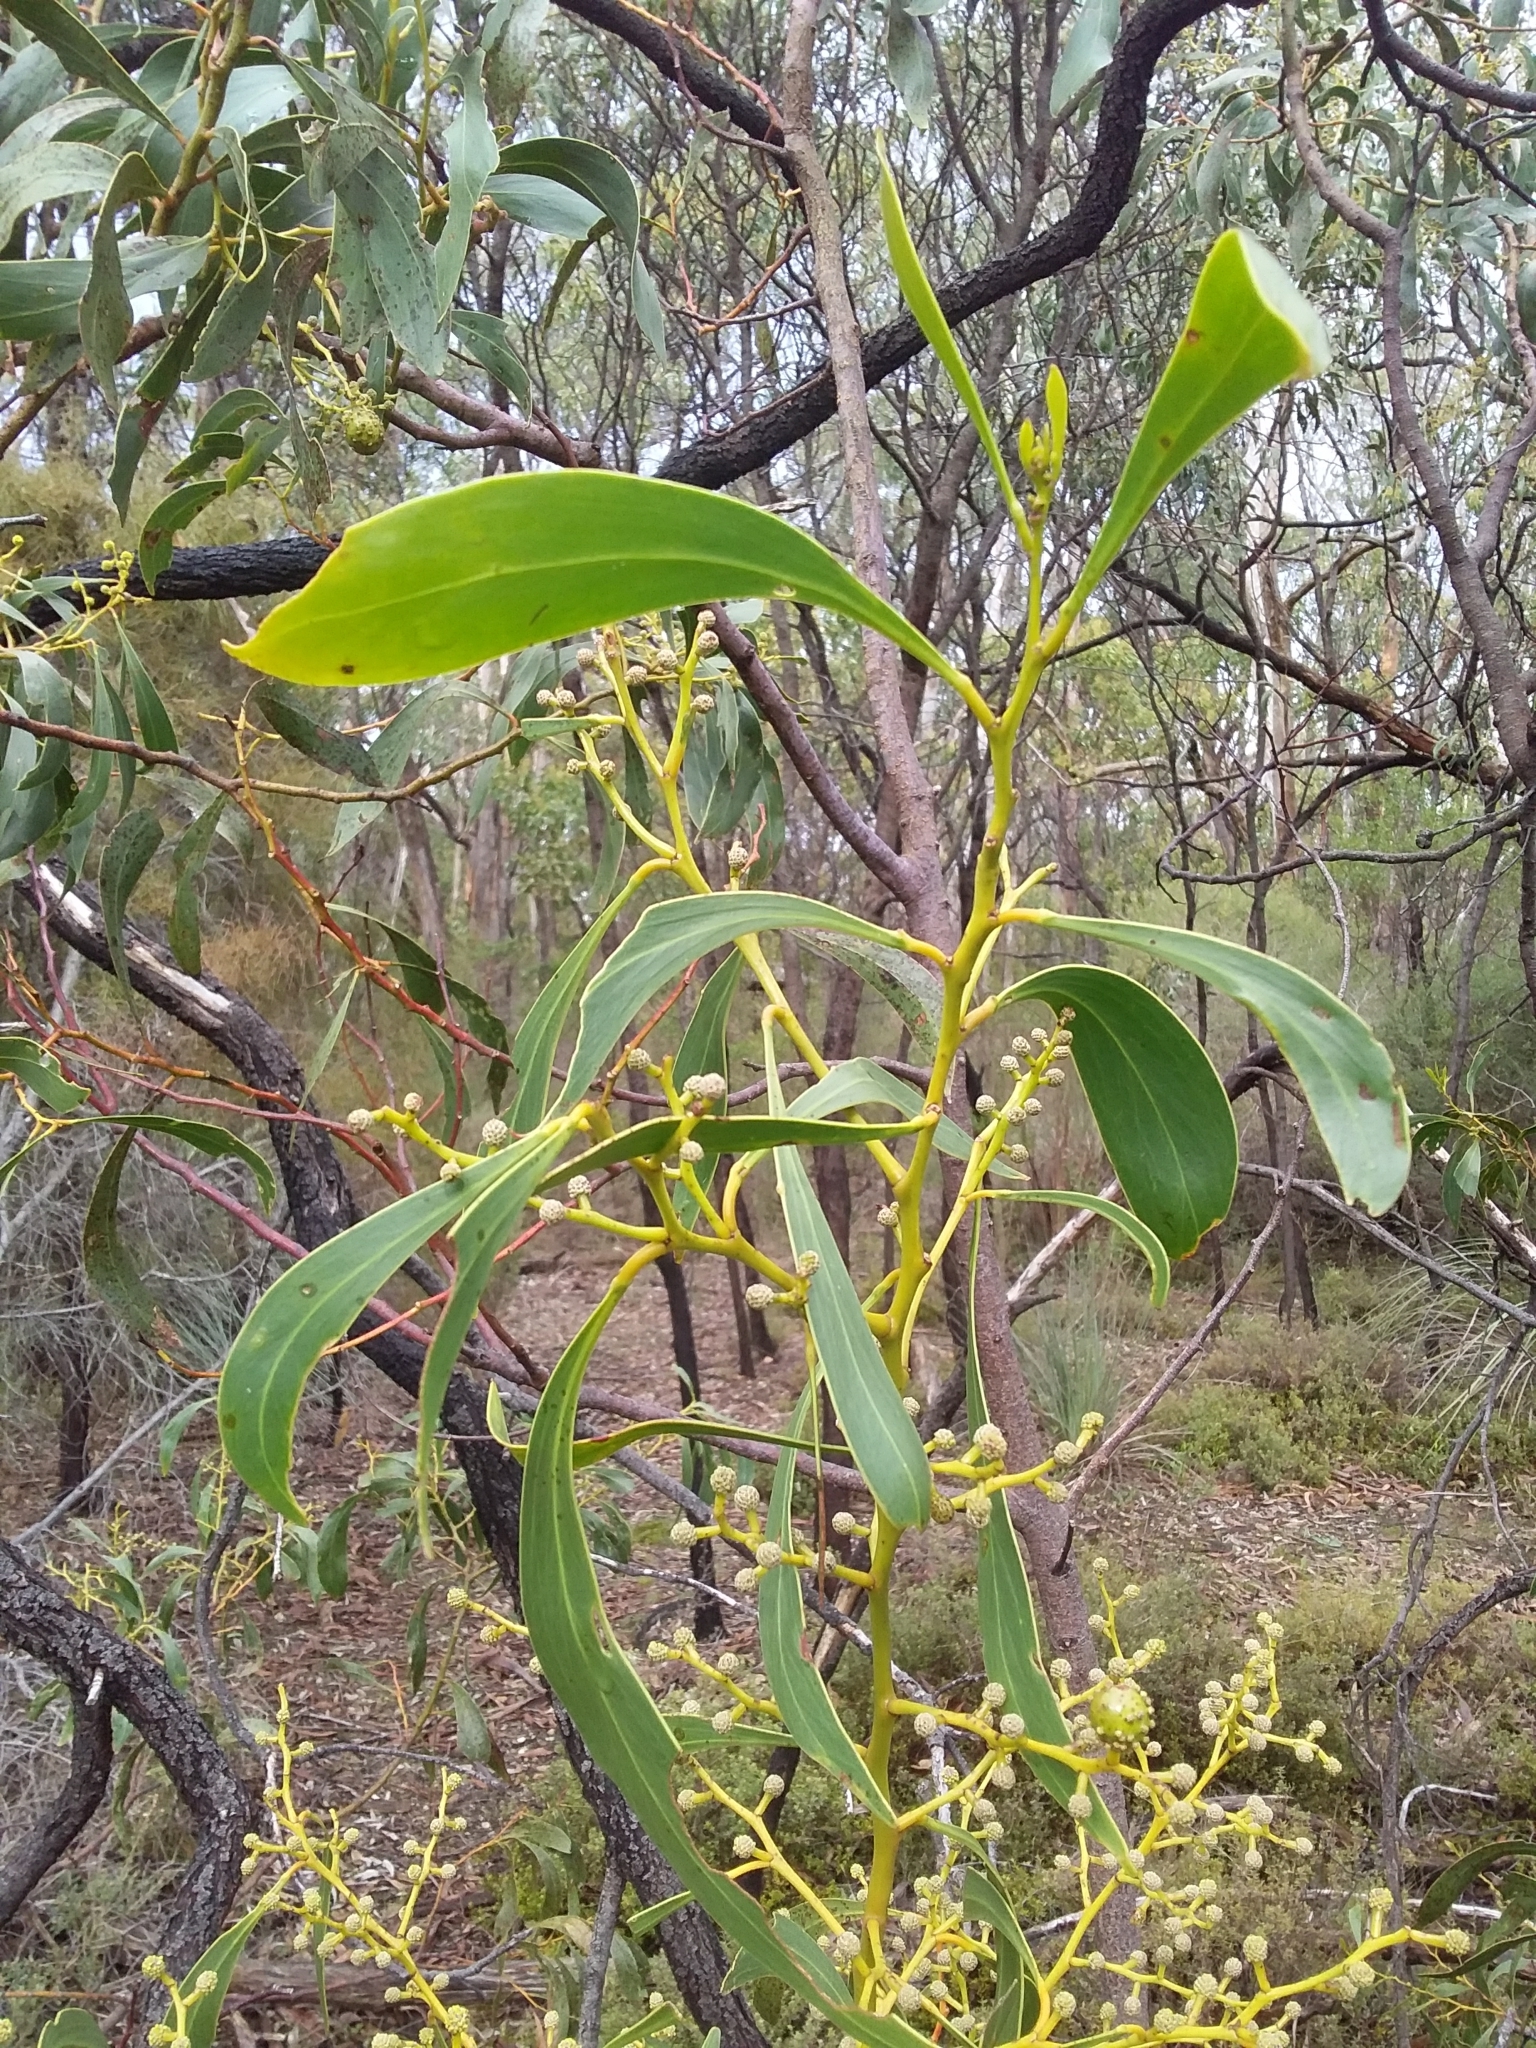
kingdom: Plantae
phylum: Tracheophyta
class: Magnoliopsida
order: Fabales
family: Fabaceae
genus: Acacia
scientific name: Acacia pycnantha
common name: Golden wattle
